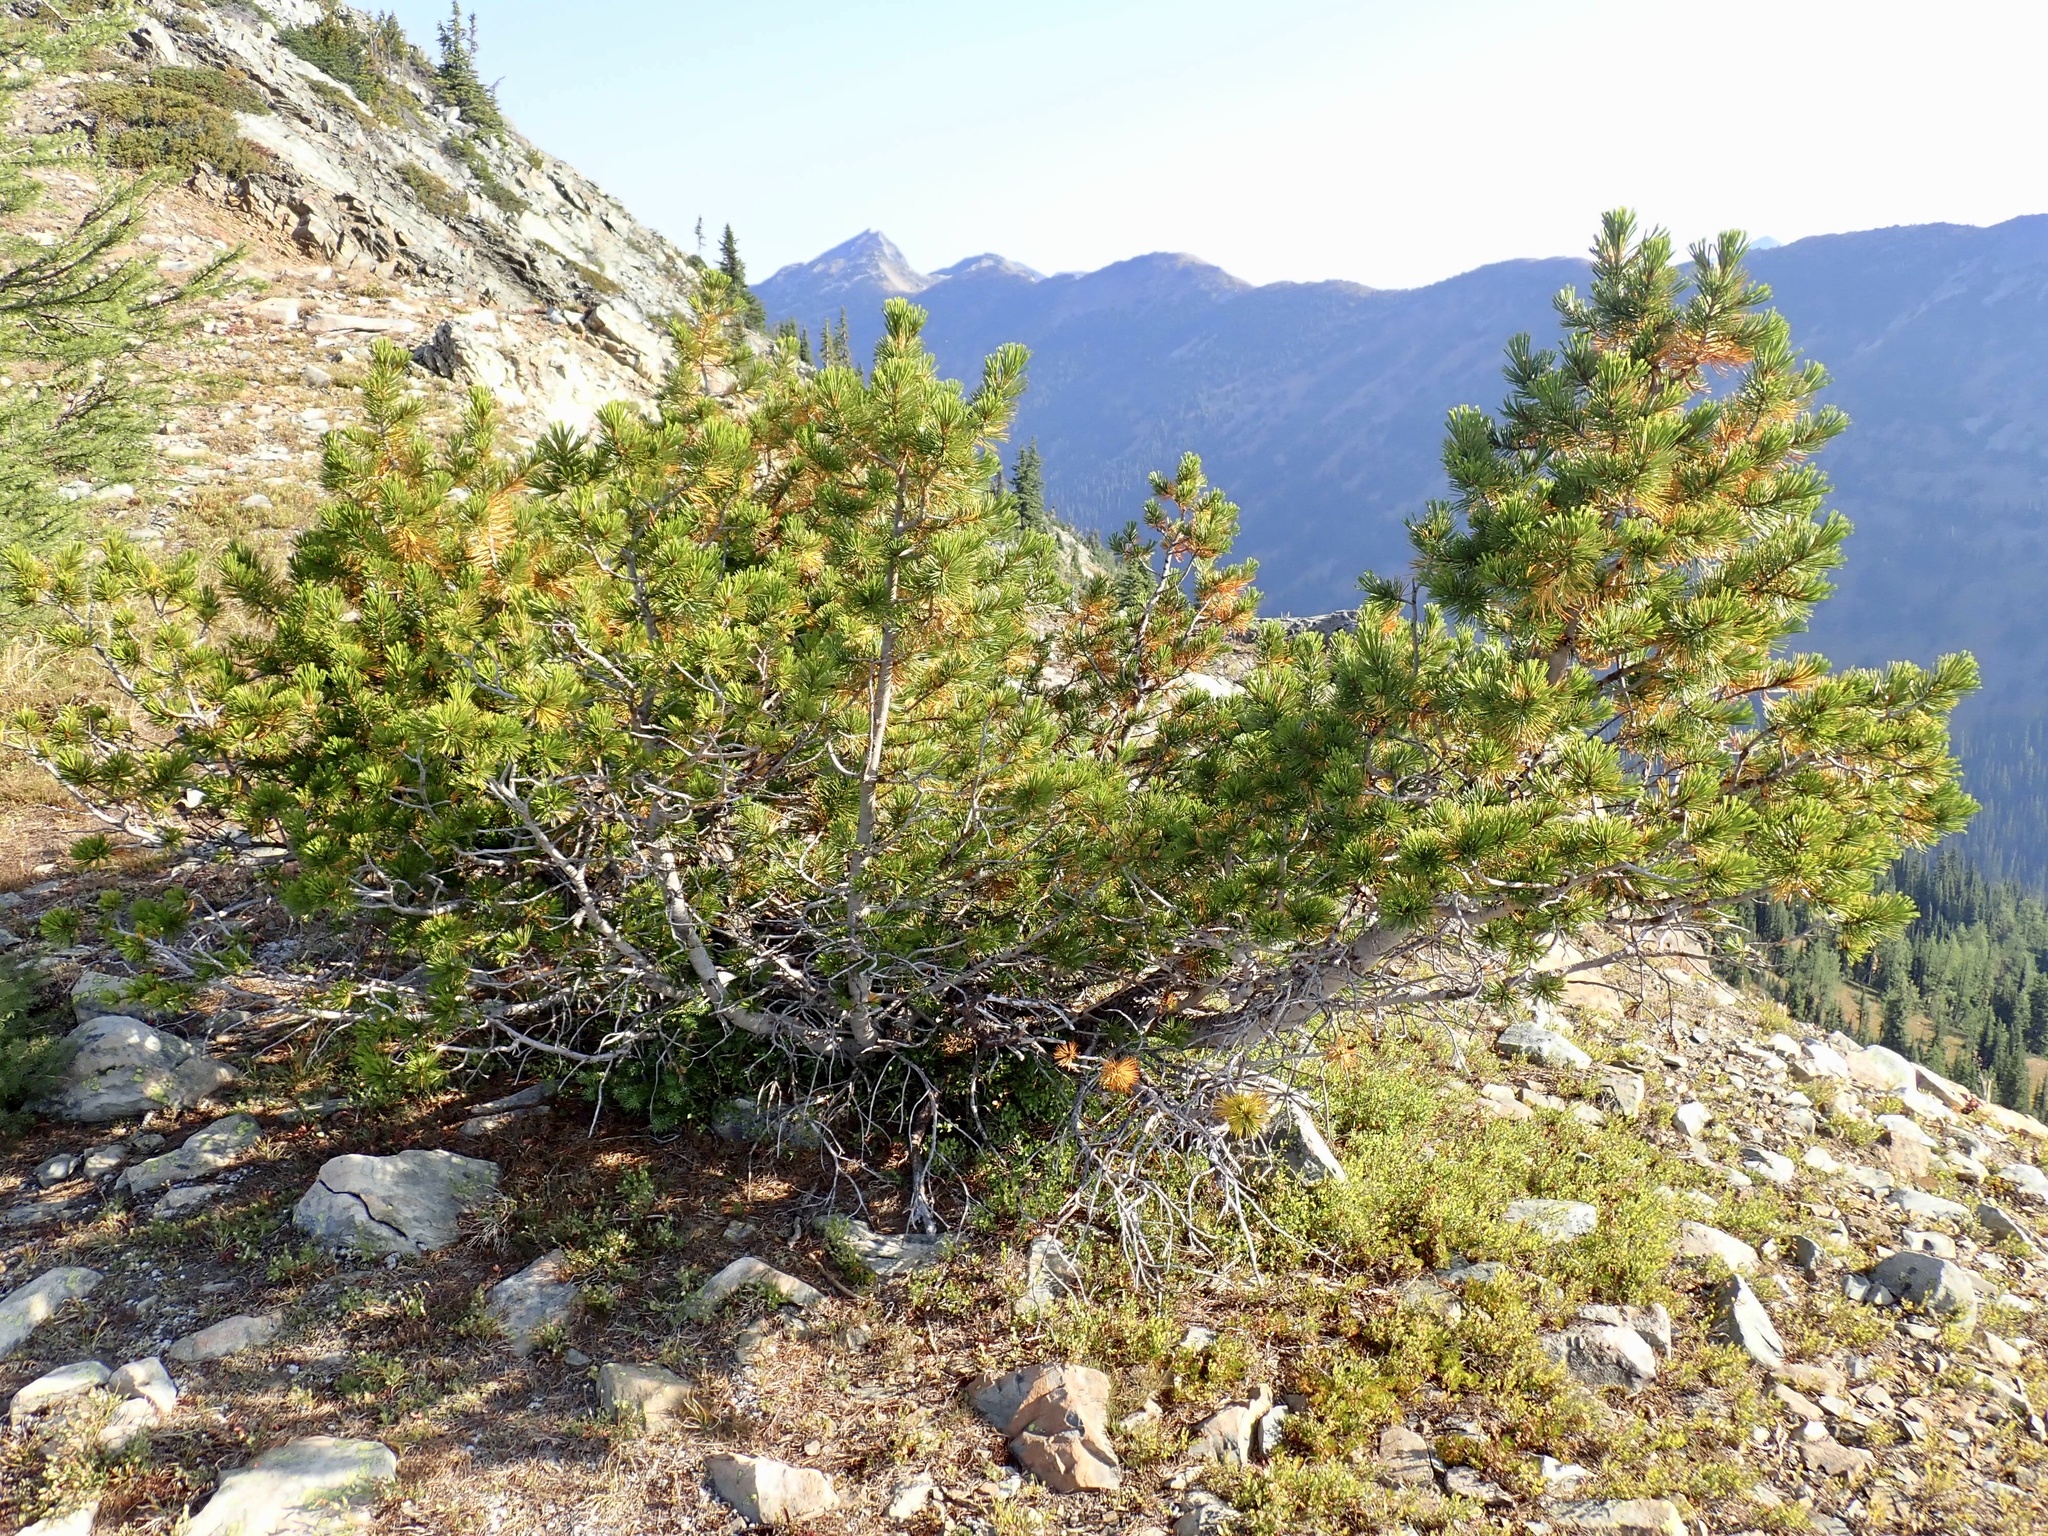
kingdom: Plantae
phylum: Tracheophyta
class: Pinopsida
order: Pinales
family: Pinaceae
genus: Pinus
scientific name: Pinus albicaulis
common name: Whitebark pine
